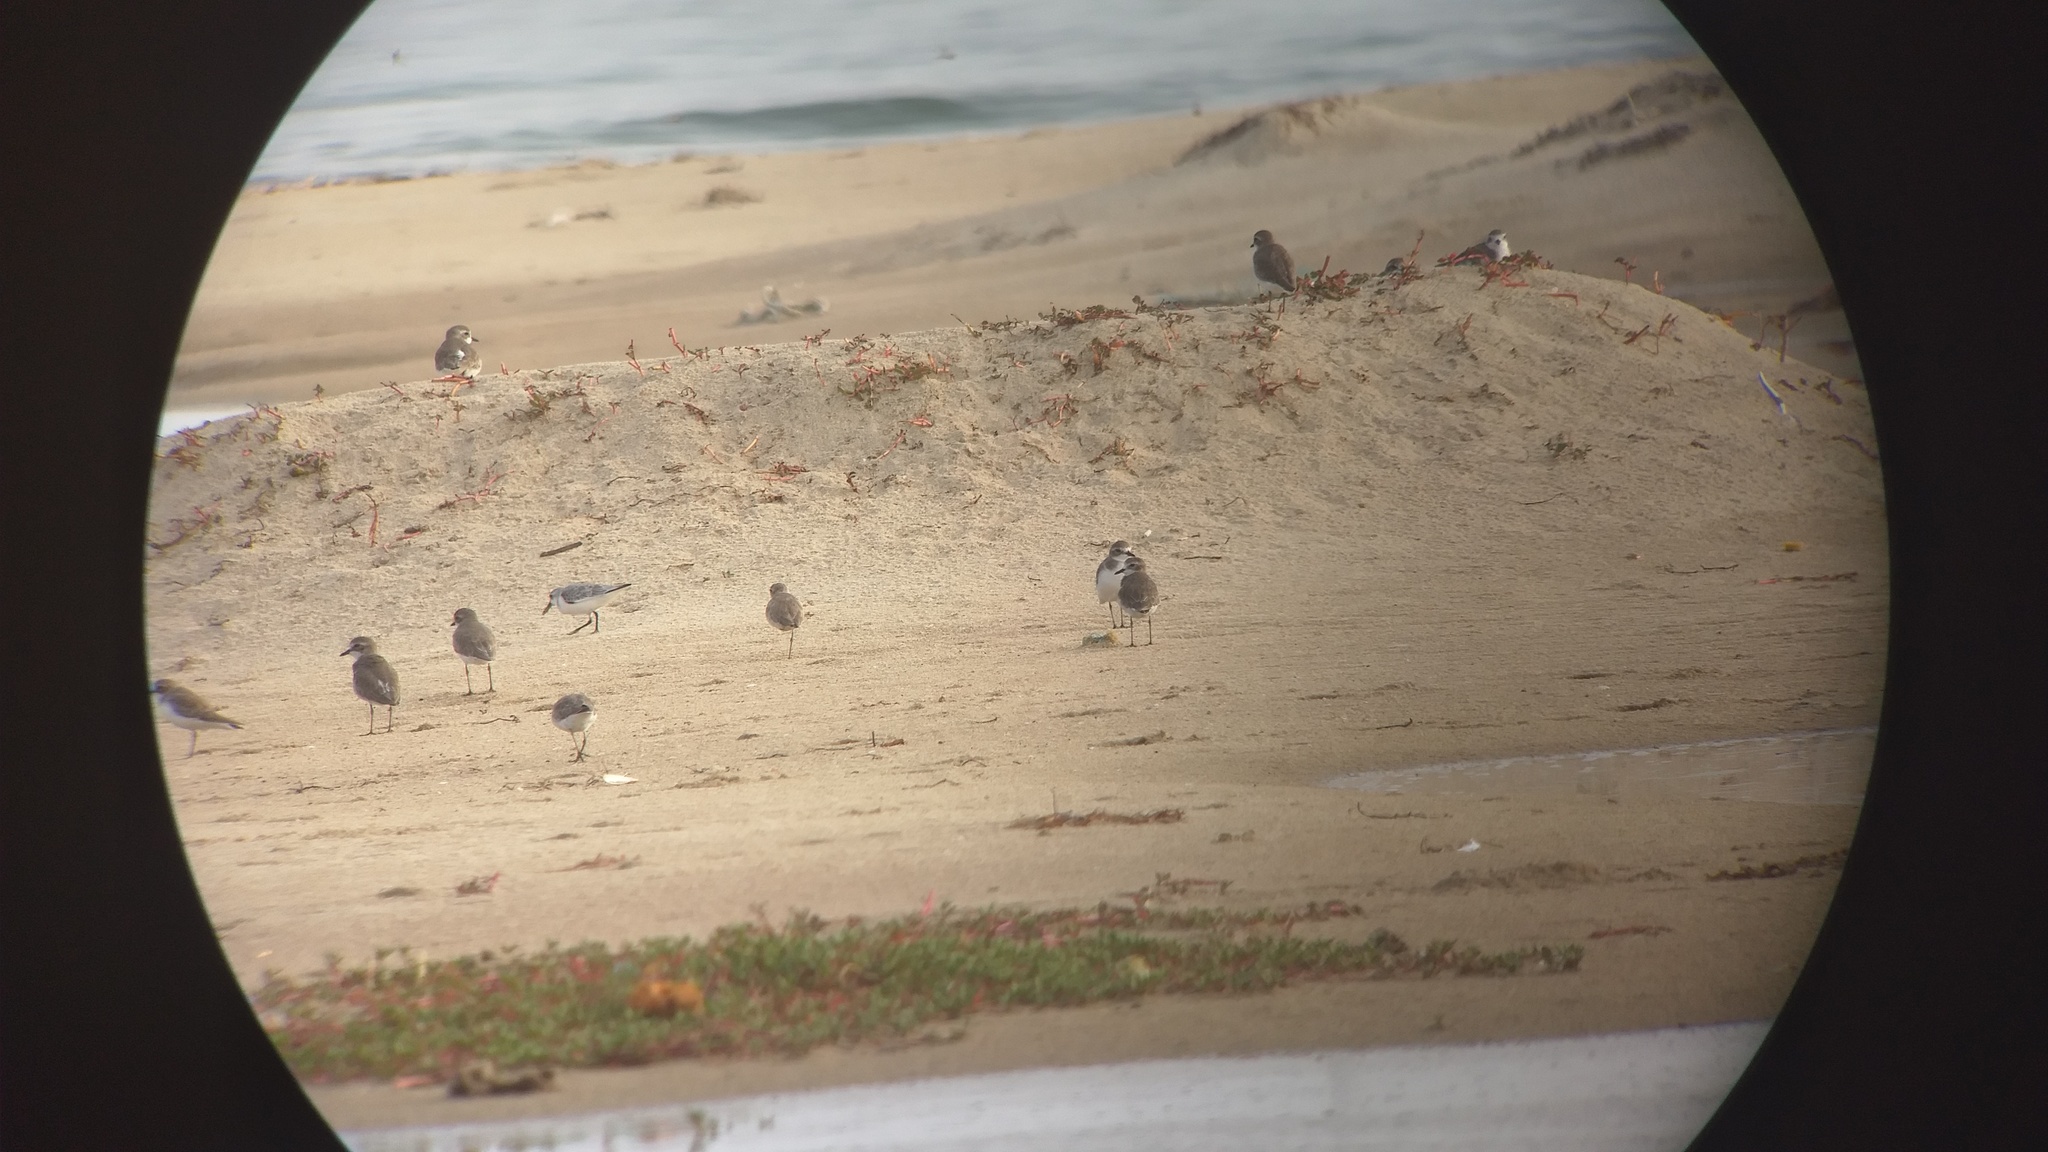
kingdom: Animalia
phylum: Chordata
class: Aves
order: Charadriiformes
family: Charadriidae
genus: Anarhynchus
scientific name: Anarhynchus
